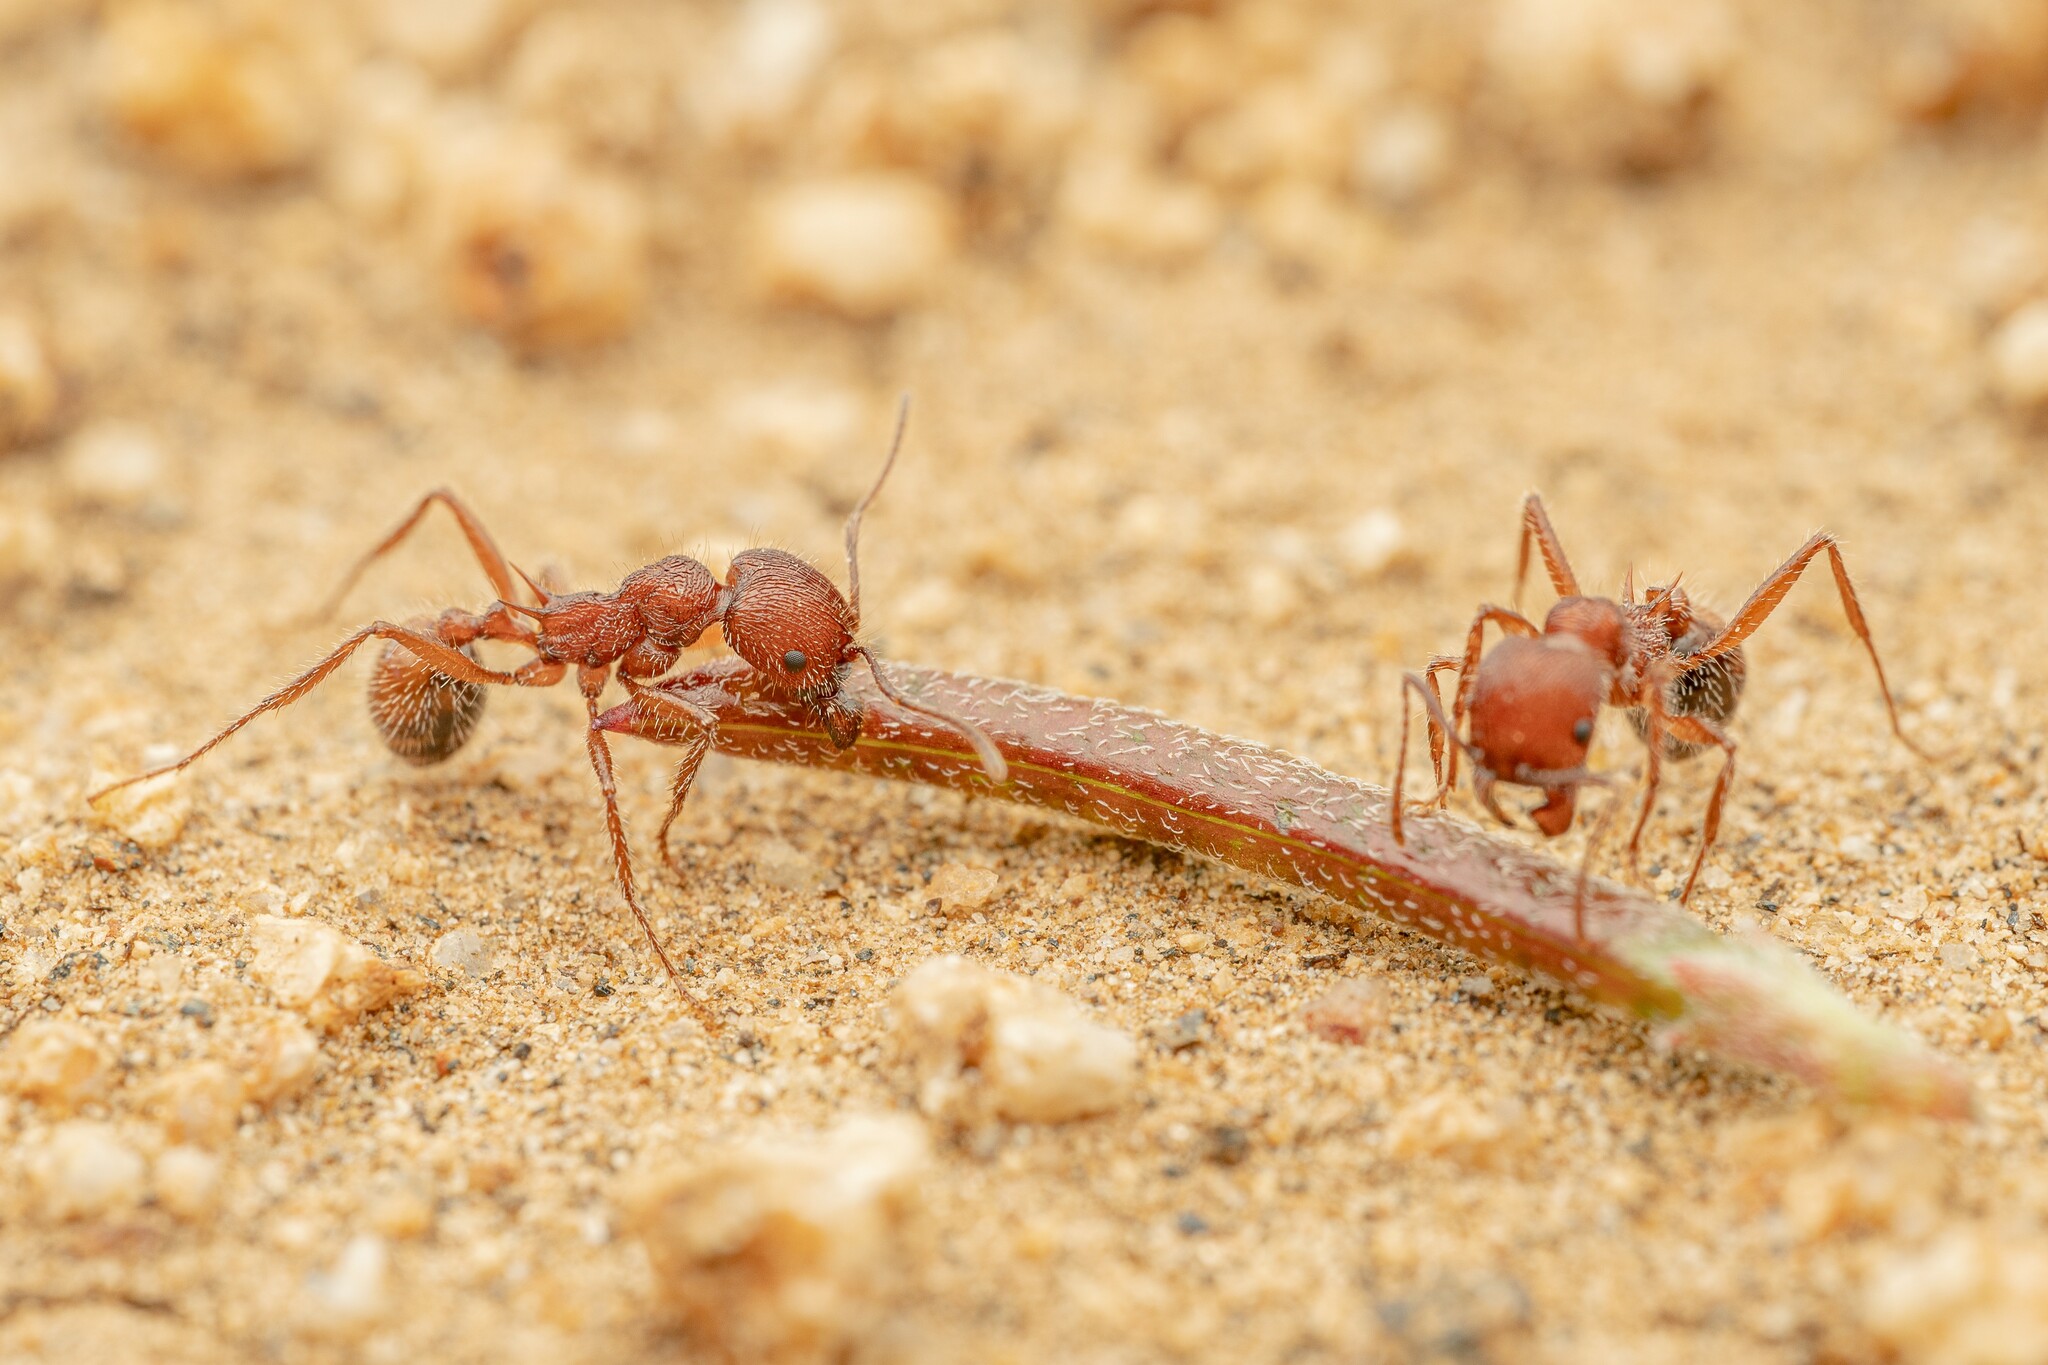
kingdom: Animalia
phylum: Arthropoda
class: Insecta
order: Hymenoptera
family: Formicidae
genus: Veromessor
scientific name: Veromessor andrei
